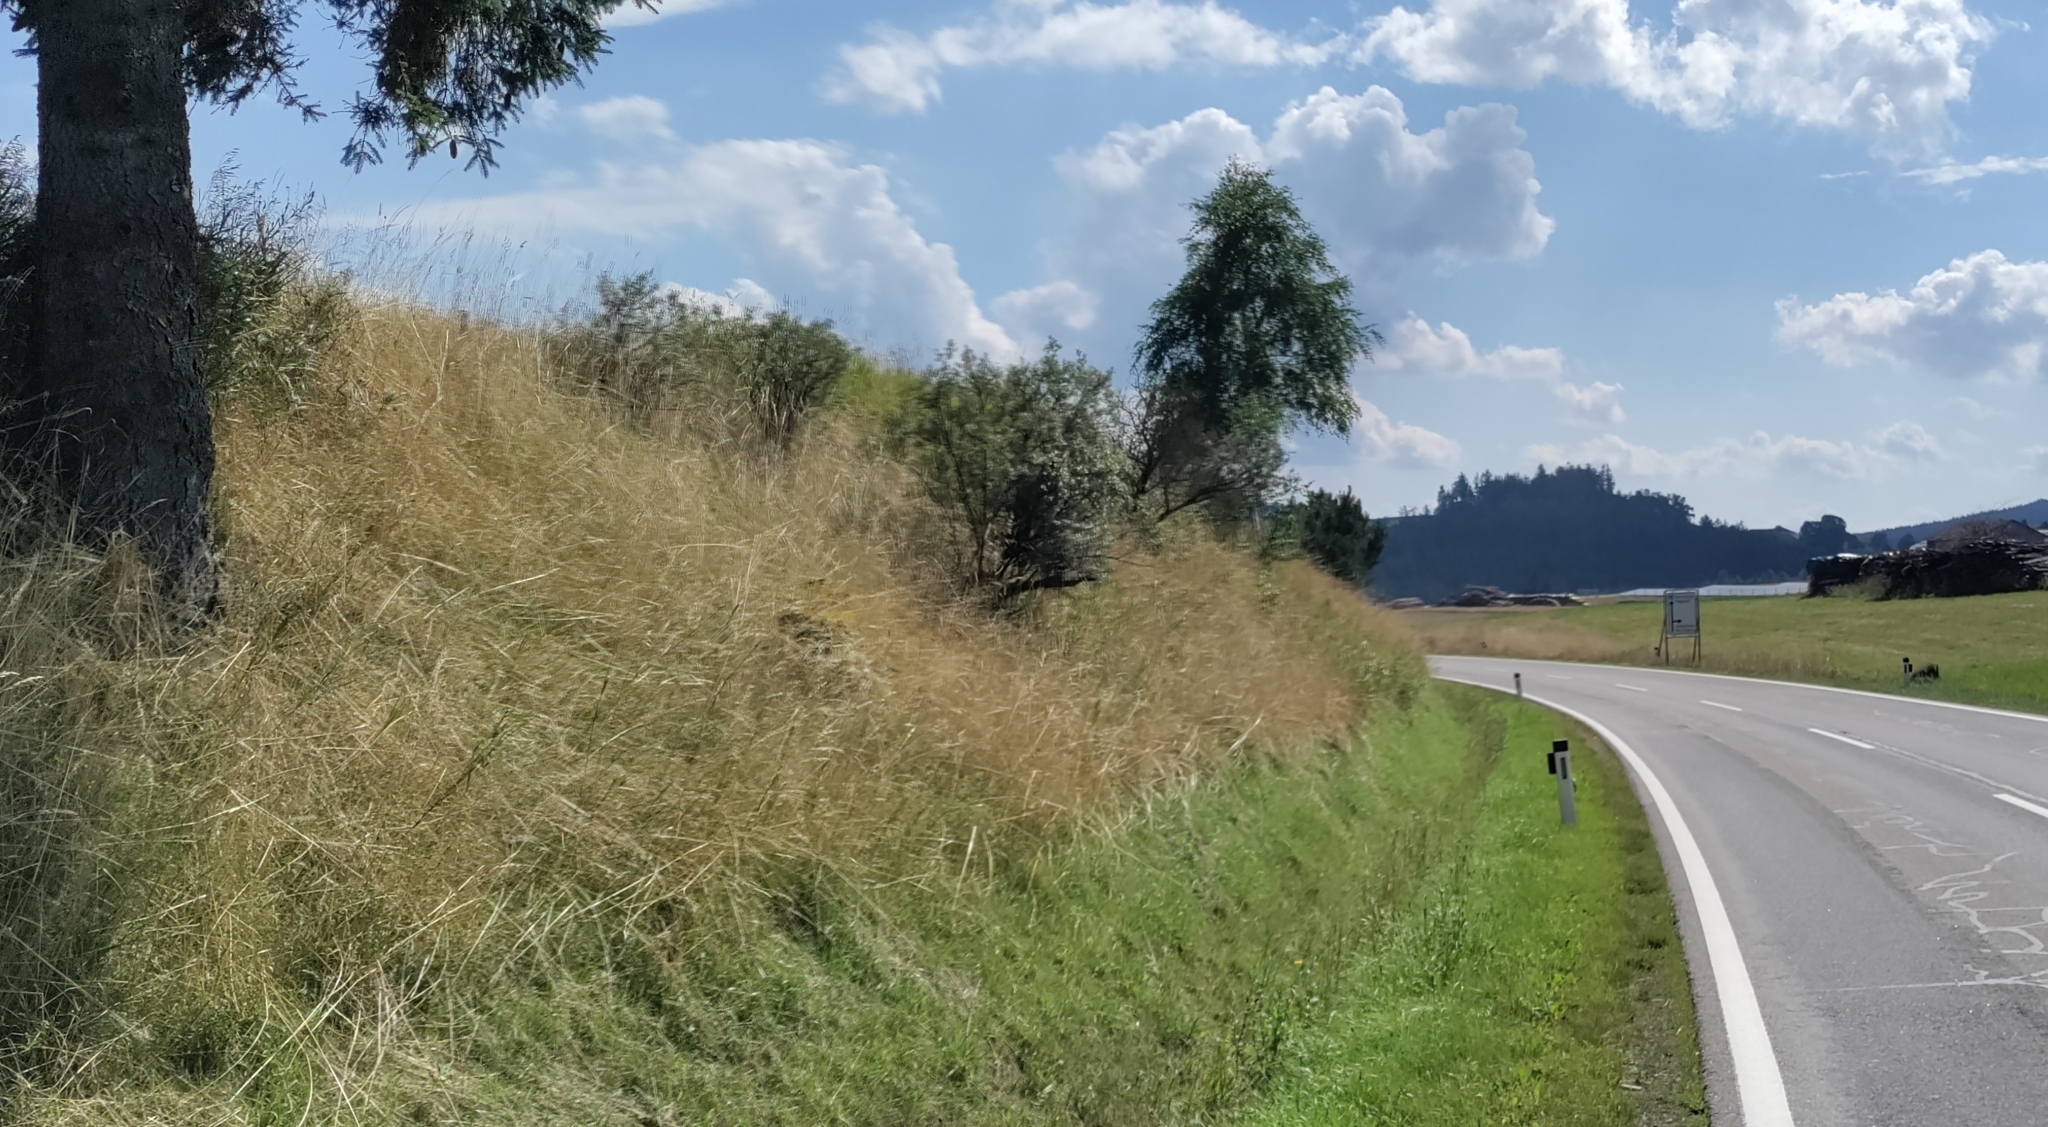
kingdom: Plantae
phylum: Tracheophyta
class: Magnoliopsida
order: Rosales
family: Elaeagnaceae
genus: Hippophae
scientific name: Hippophae rhamnoides
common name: Sea-buckthorn
